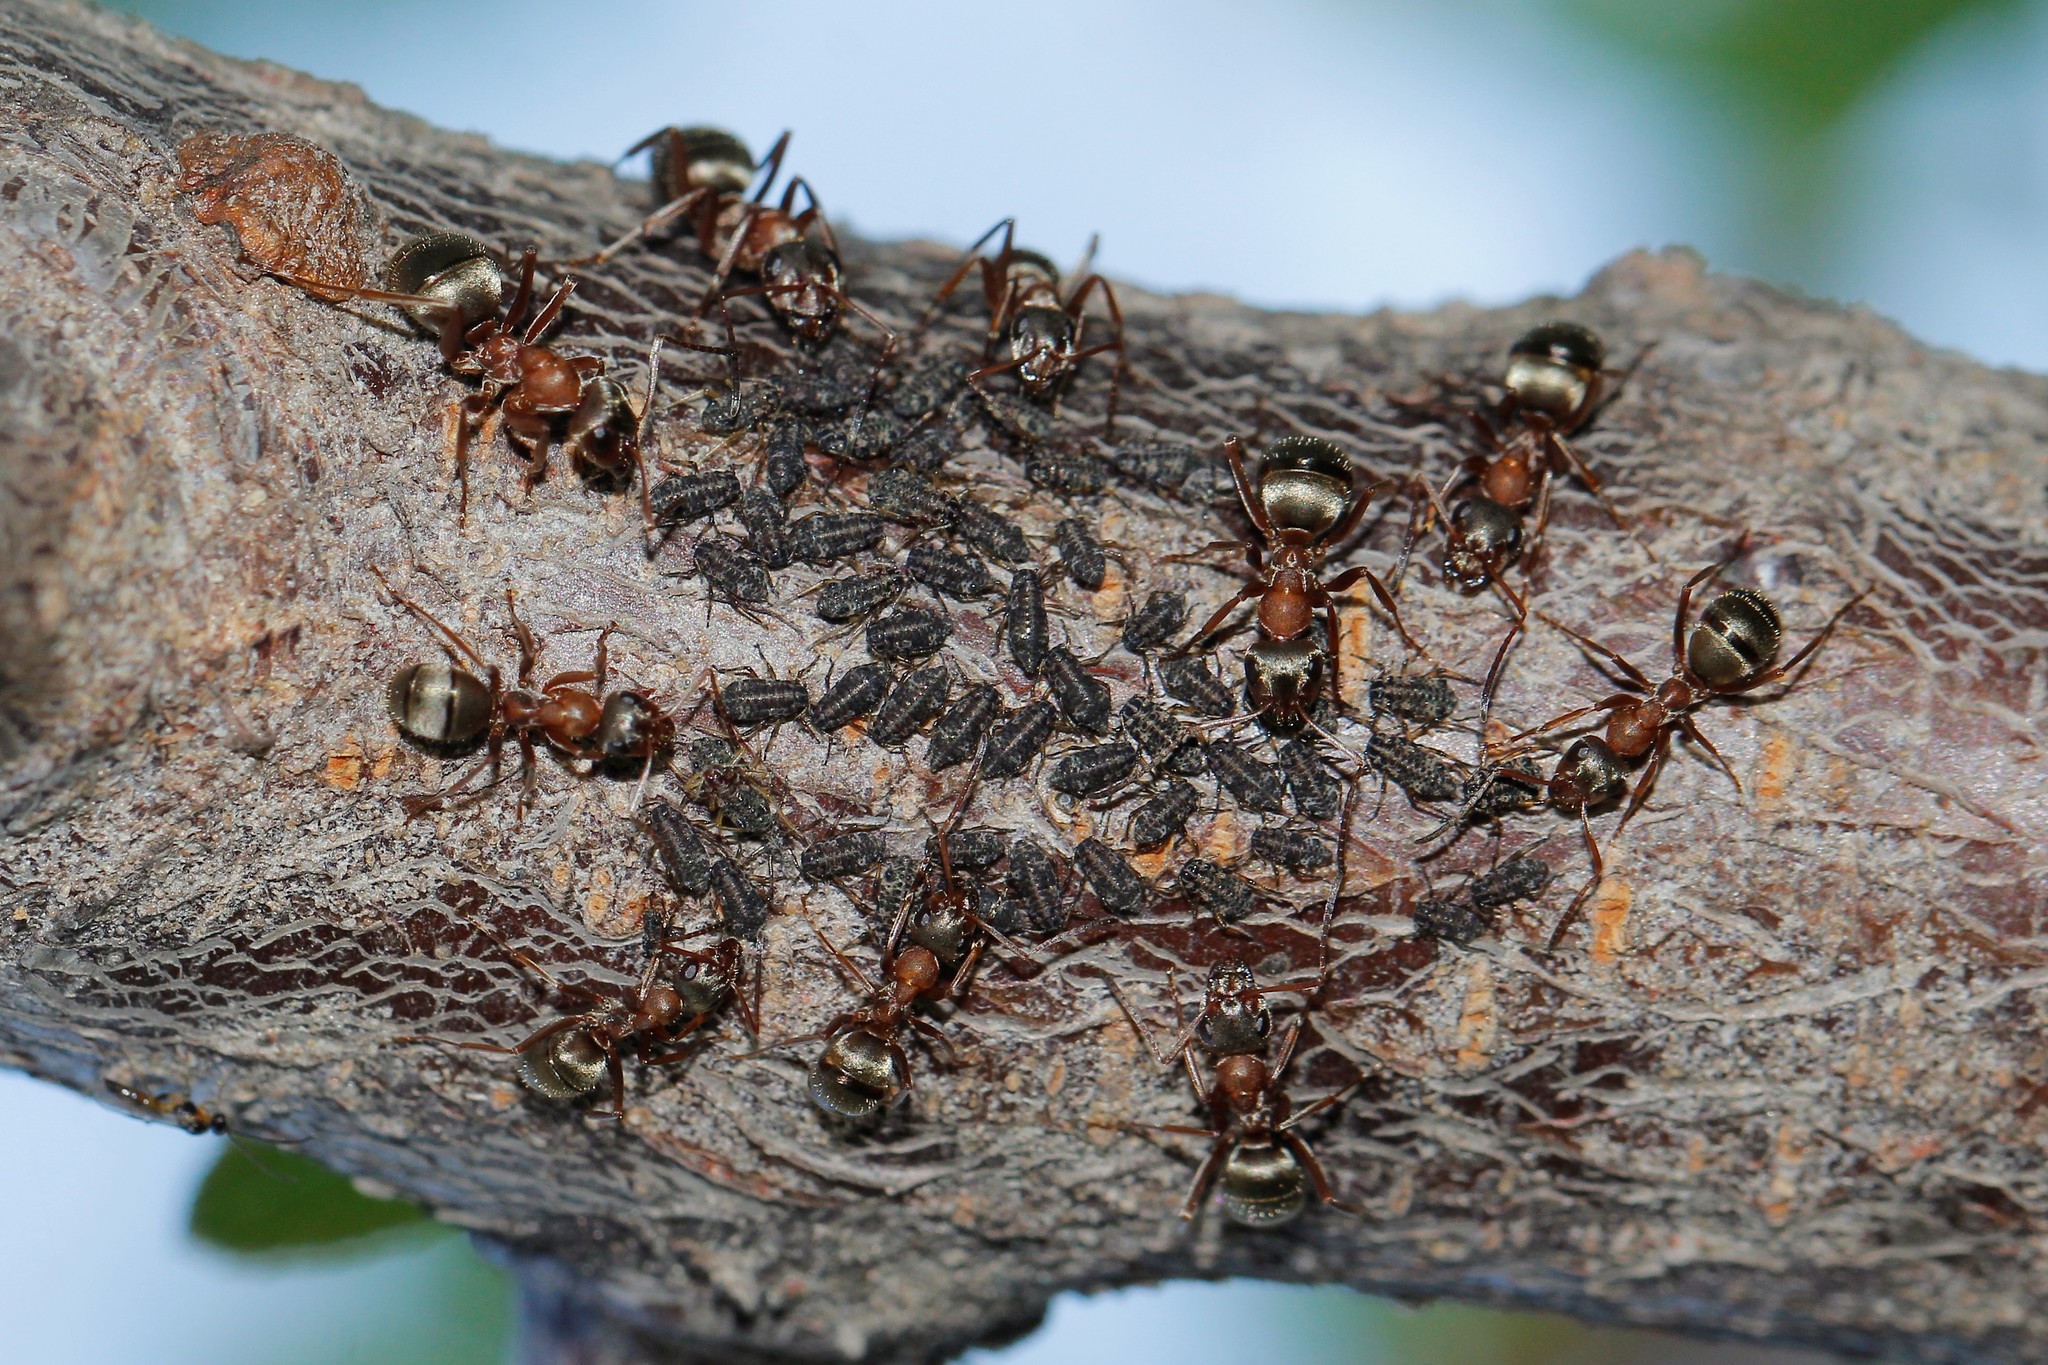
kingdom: Animalia
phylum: Arthropoda
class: Insecta
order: Hymenoptera
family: Formicidae
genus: Formica
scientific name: Formica cinerea
